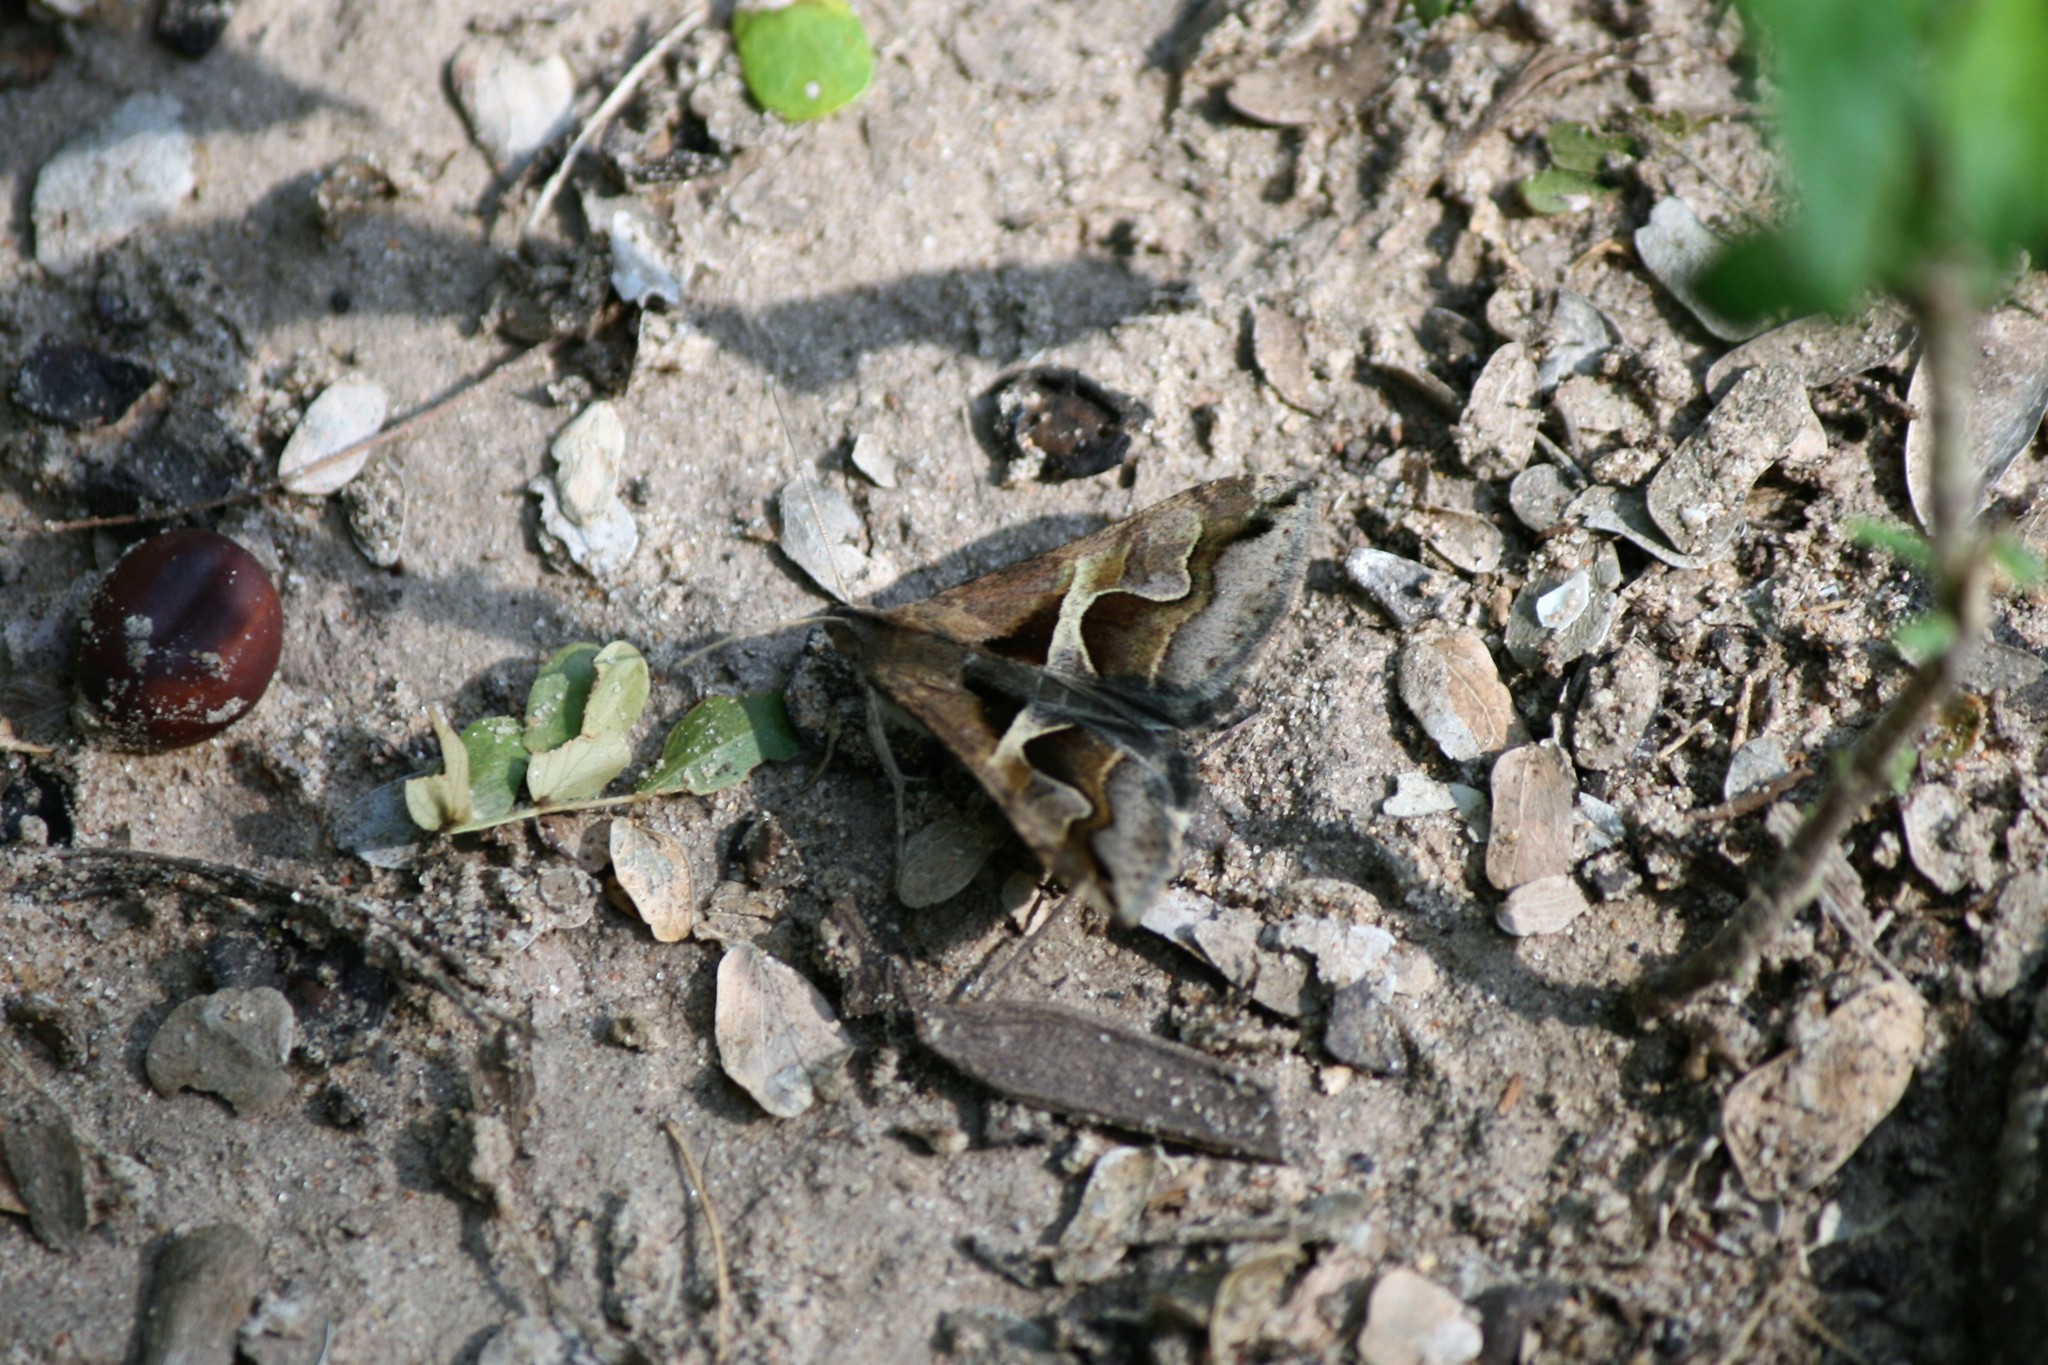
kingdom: Animalia
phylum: Arthropoda
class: Insecta
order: Lepidoptera
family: Erebidae
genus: Melipotis
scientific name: Melipotis cellaris
